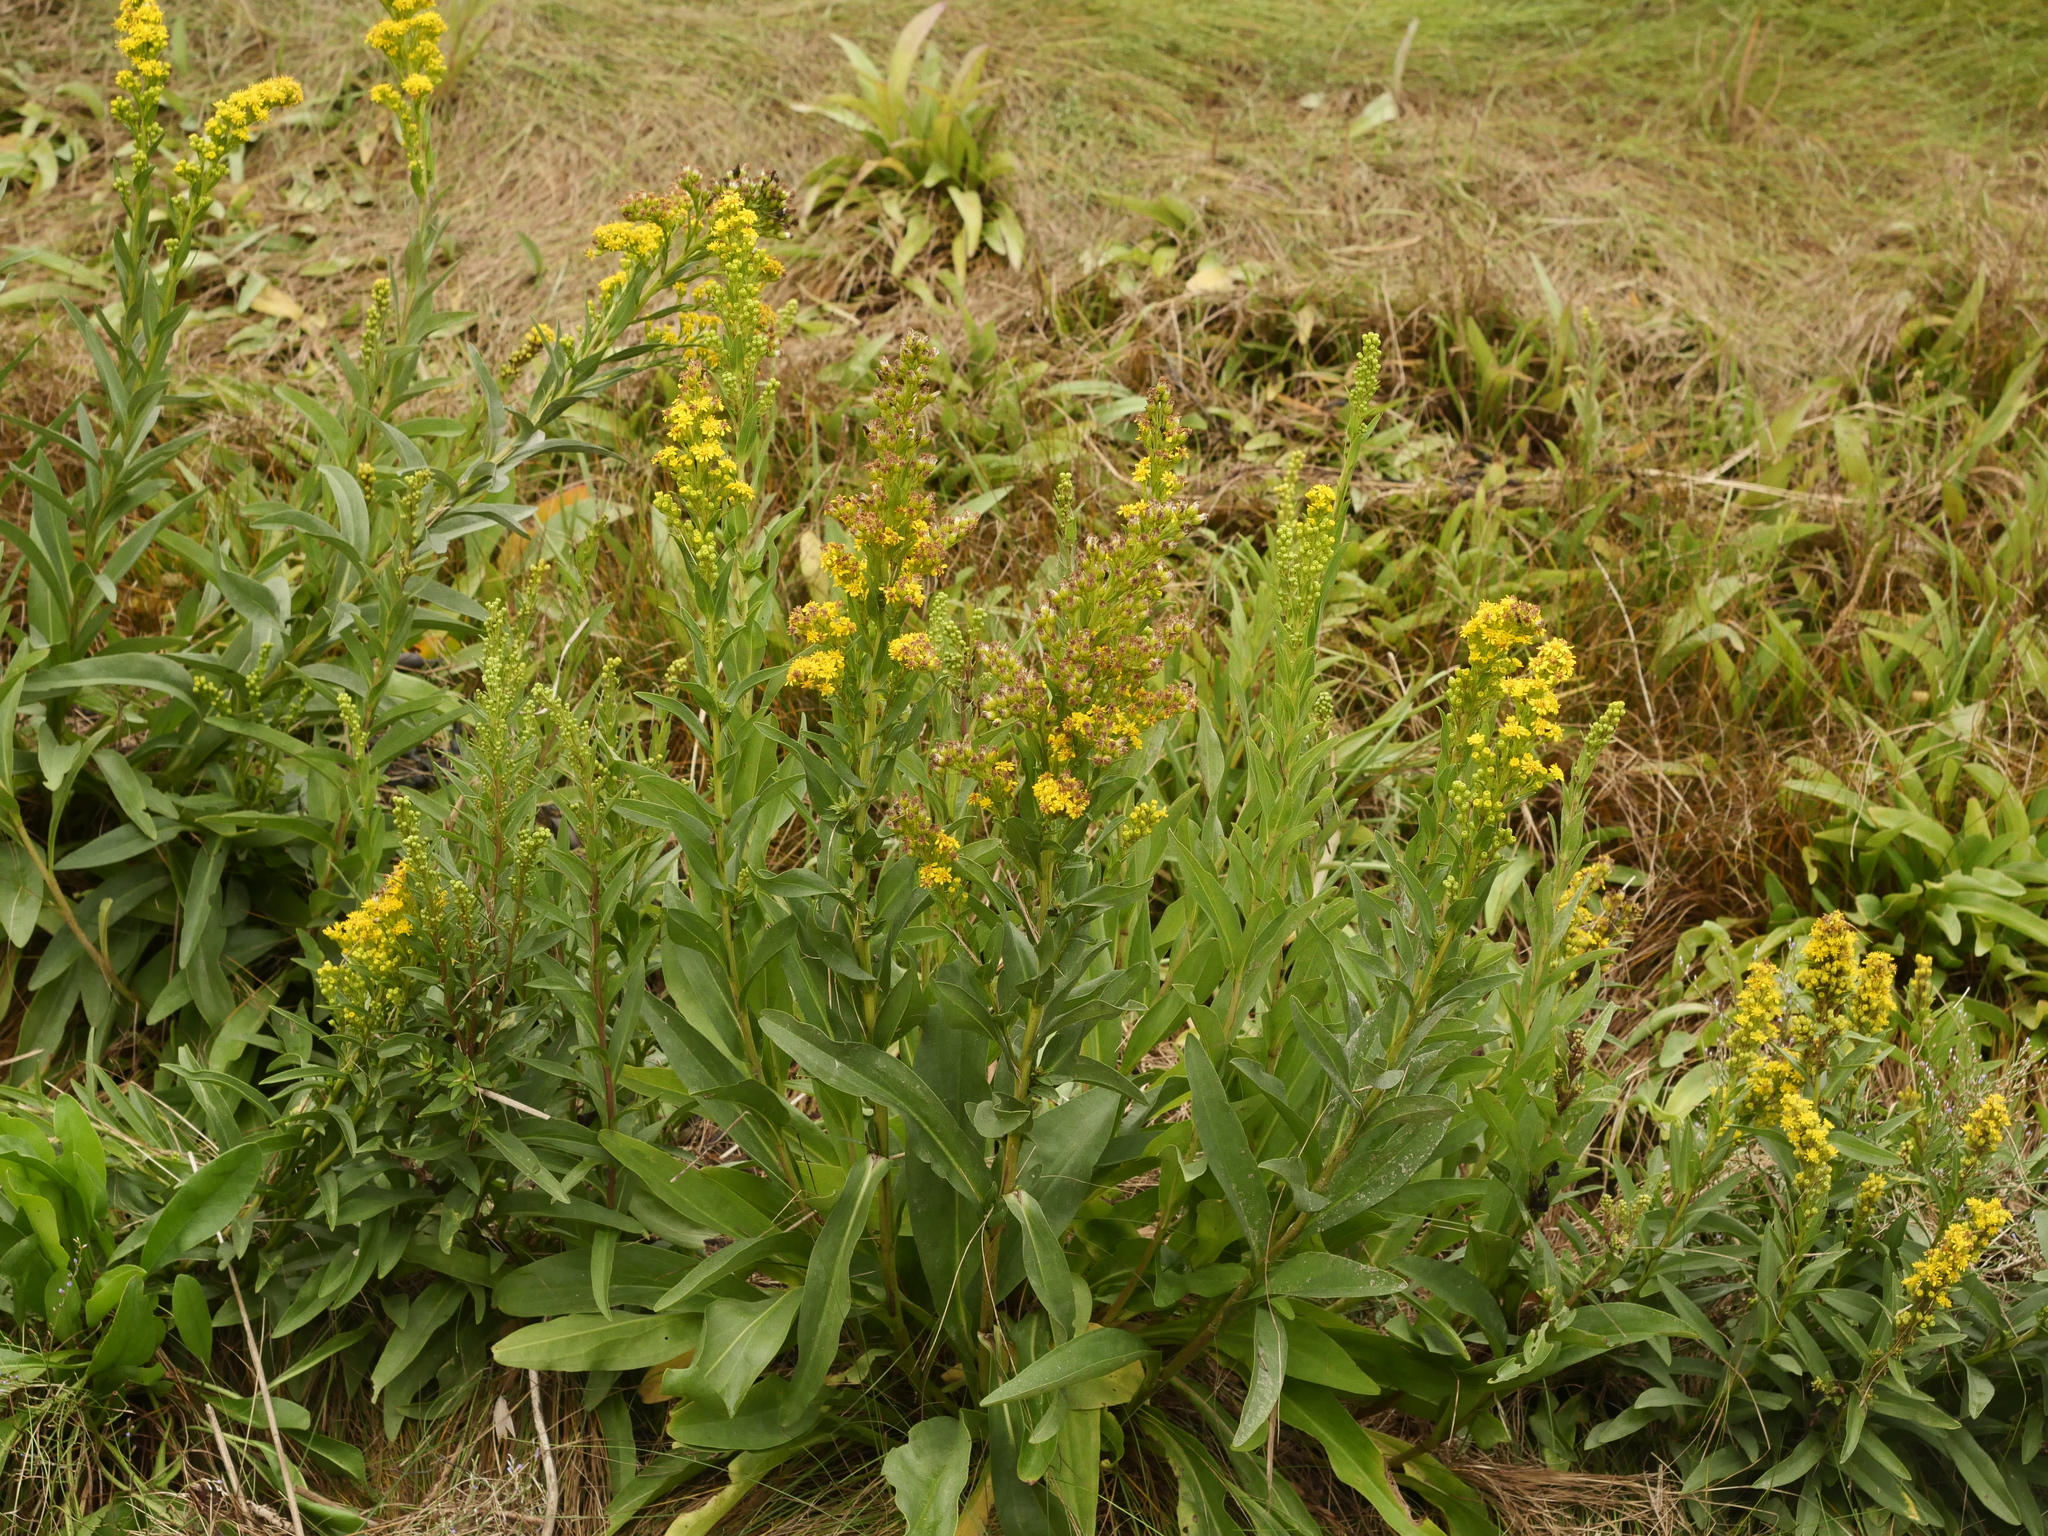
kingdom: Plantae
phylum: Tracheophyta
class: Magnoliopsida
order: Asterales
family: Asteraceae
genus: Solidago
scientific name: Solidago sempervirens
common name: Salt-marsh goldenrod
